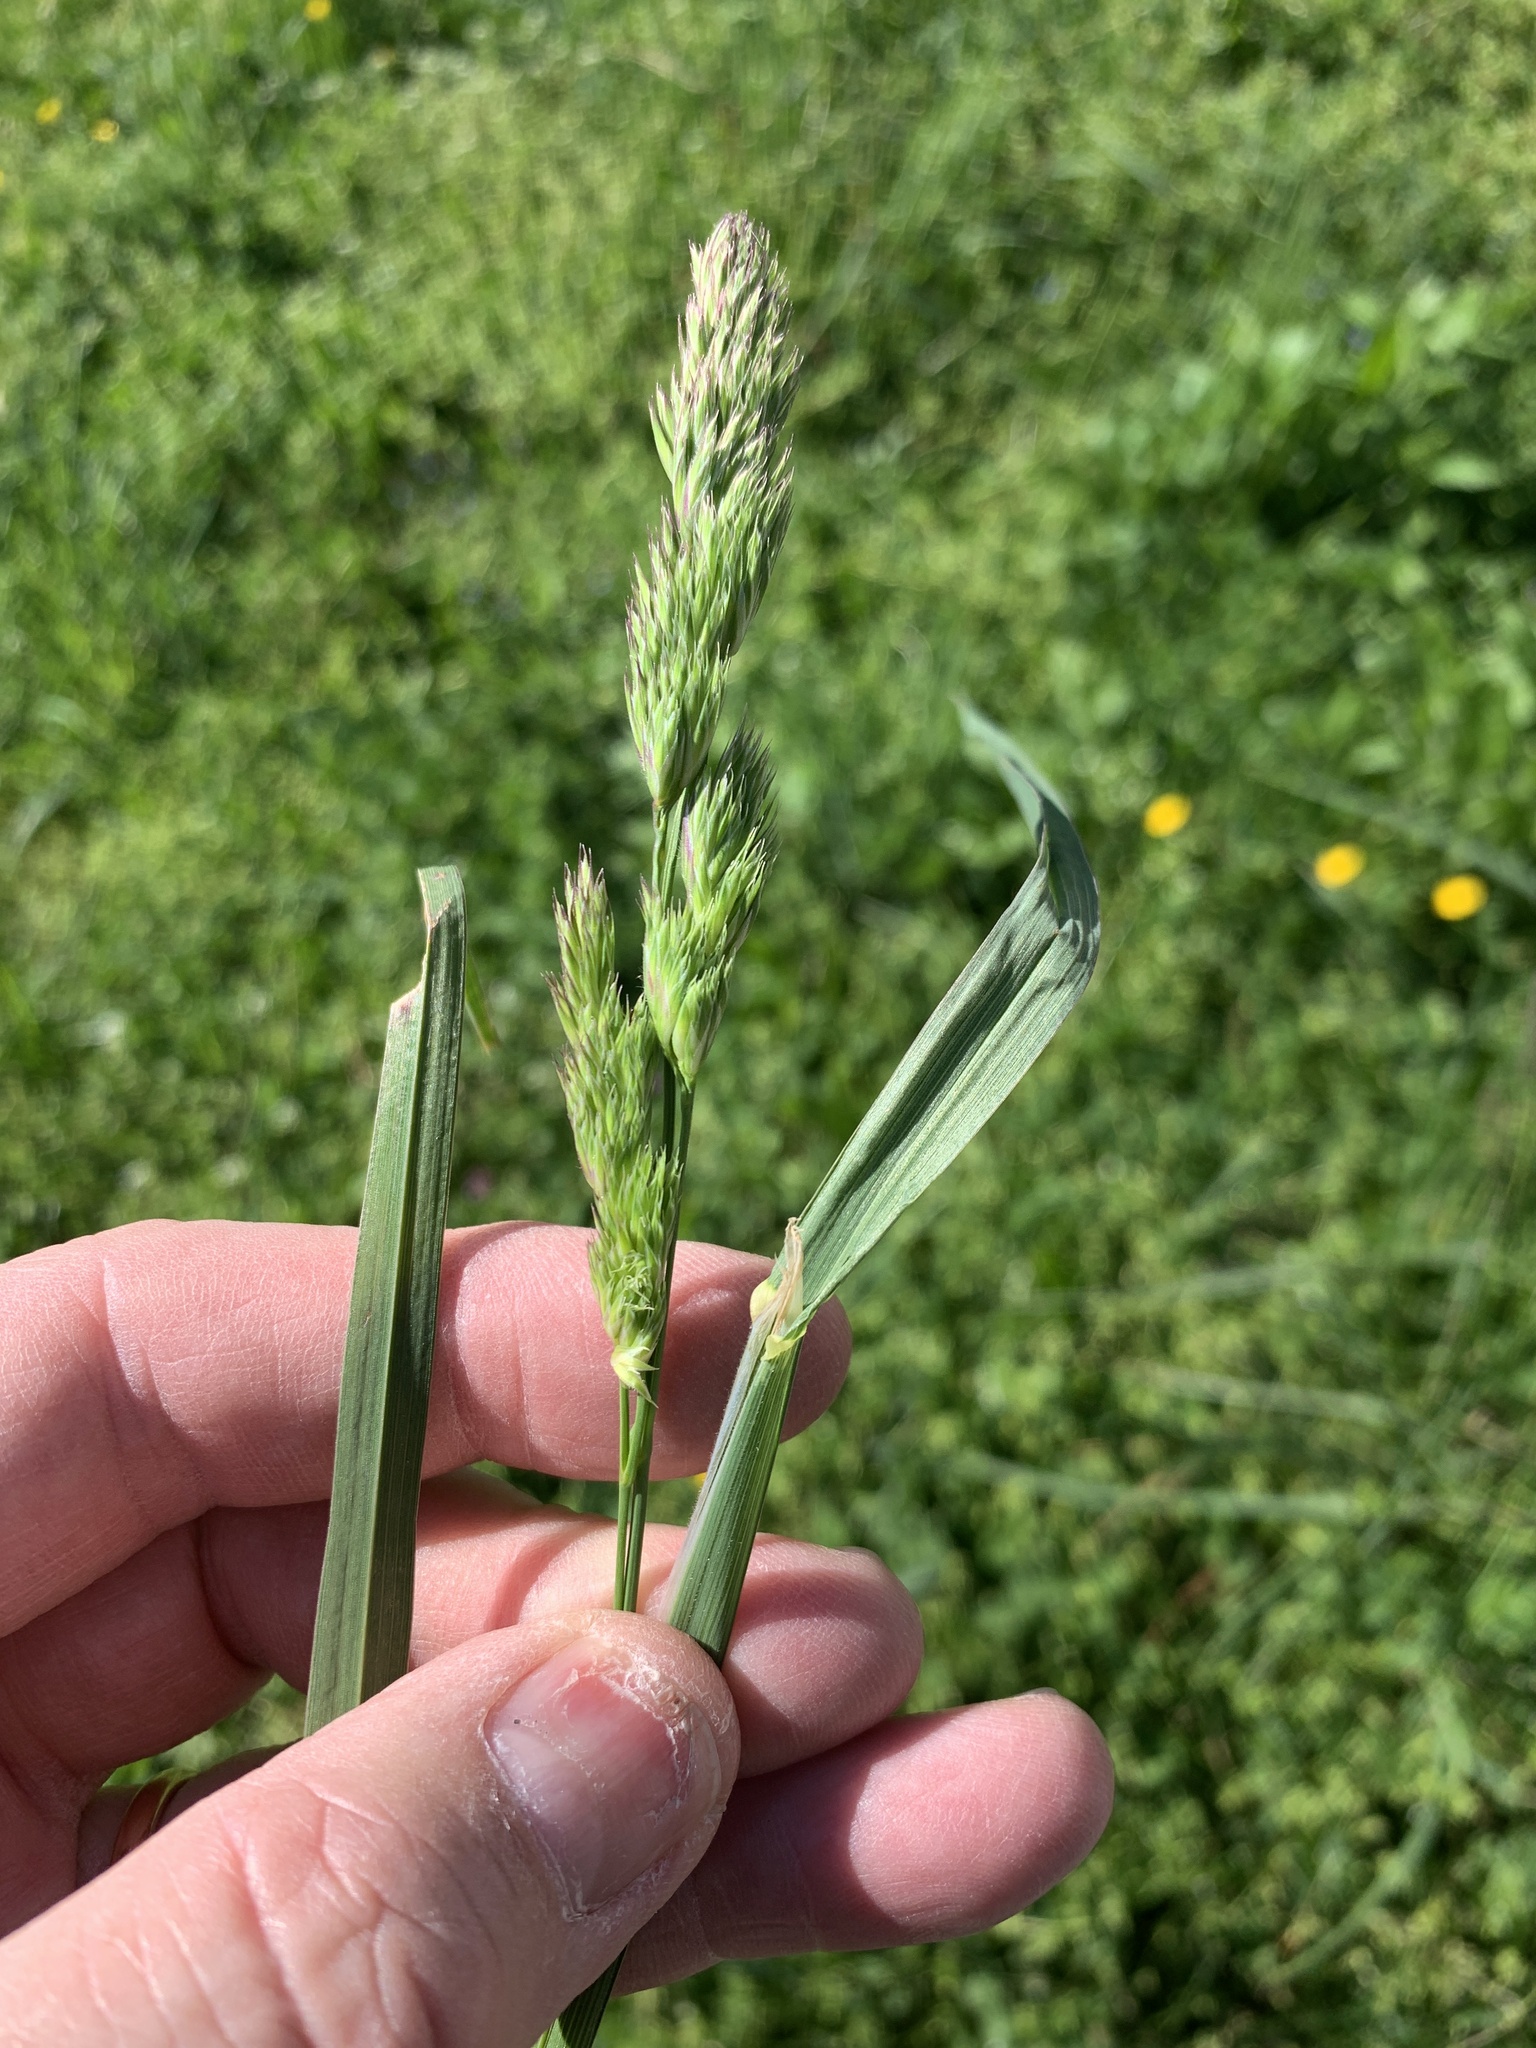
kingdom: Plantae
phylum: Tracheophyta
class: Liliopsida
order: Poales
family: Poaceae
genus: Dactylis
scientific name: Dactylis glomerata
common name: Orchardgrass
